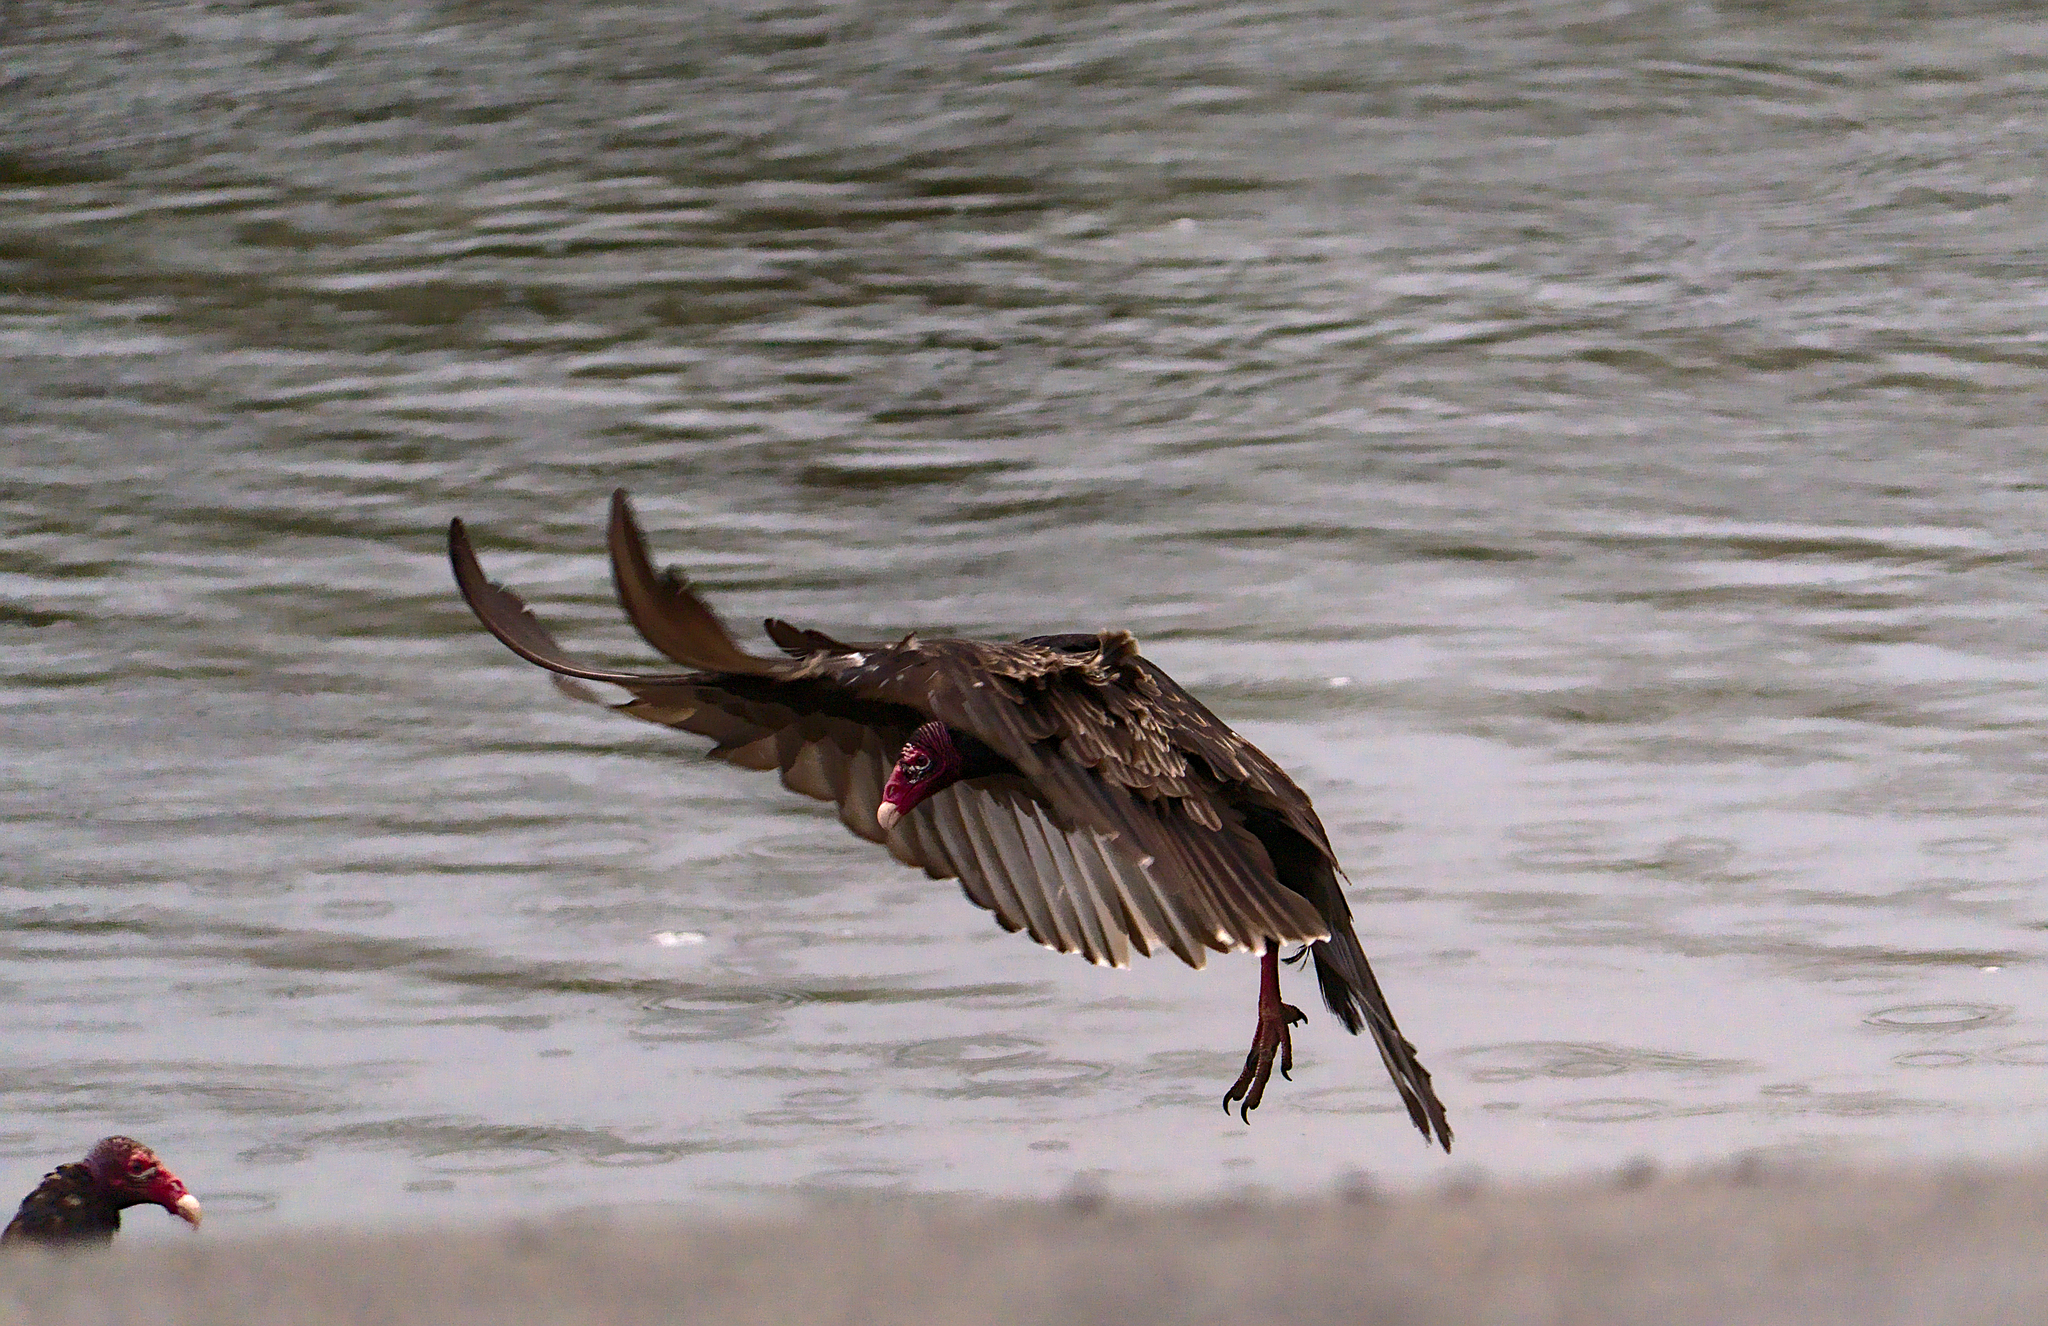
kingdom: Animalia
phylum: Chordata
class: Aves
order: Accipitriformes
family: Cathartidae
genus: Cathartes
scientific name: Cathartes aura
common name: Turkey vulture
